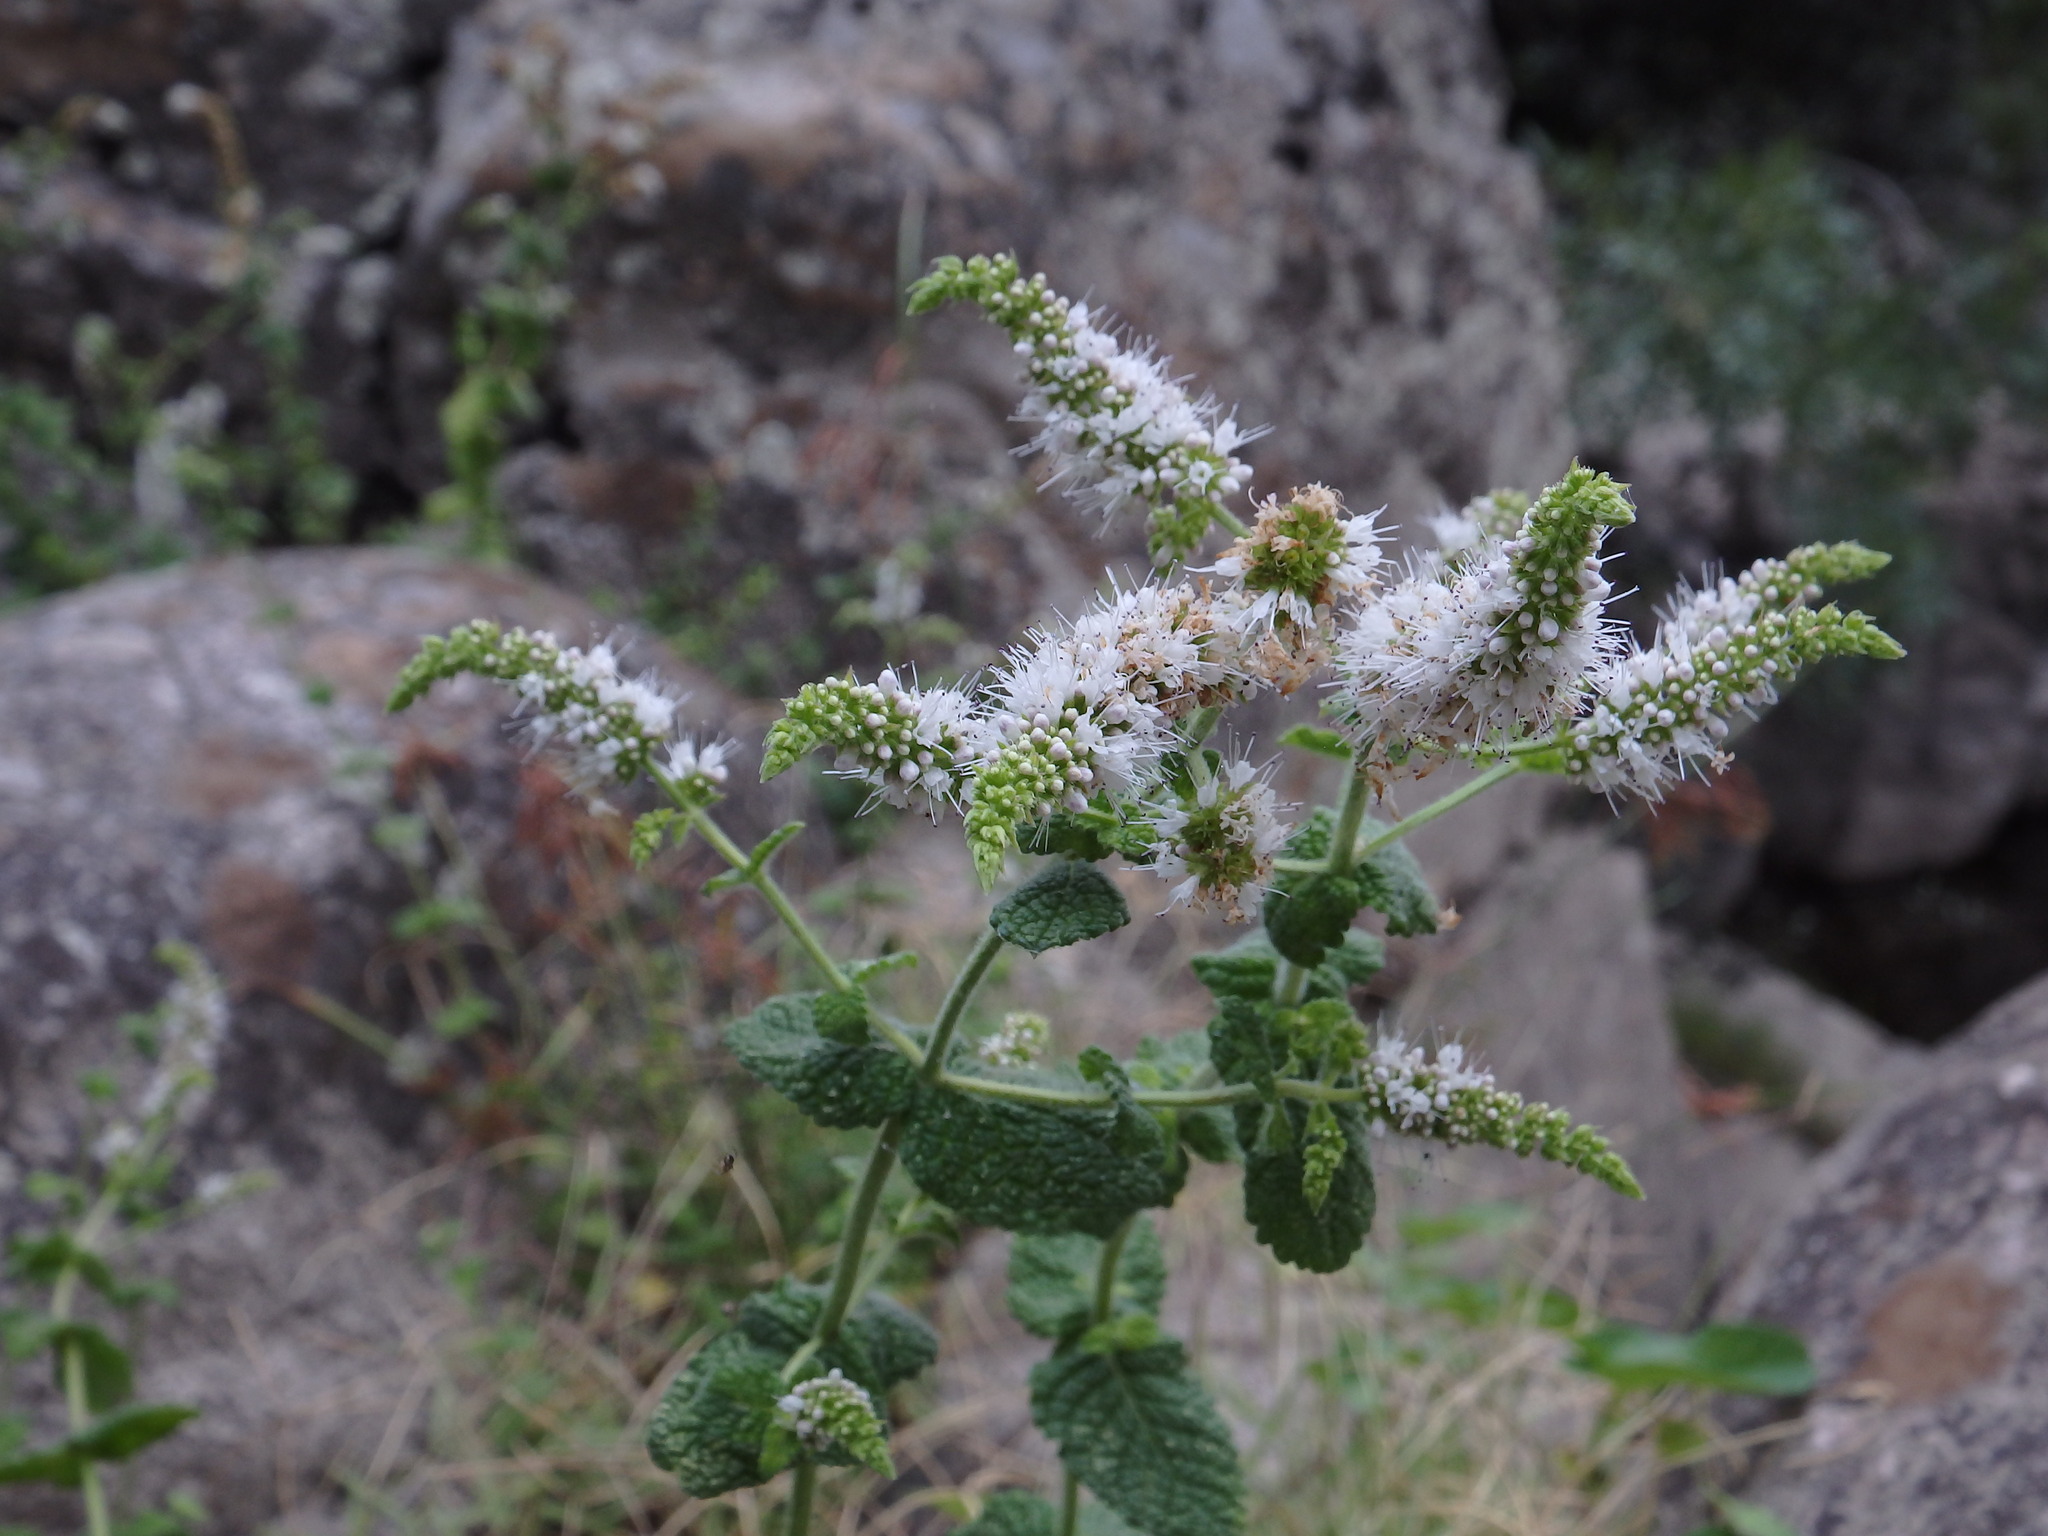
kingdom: Plantae
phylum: Tracheophyta
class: Magnoliopsida
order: Lamiales
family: Lamiaceae
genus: Mentha
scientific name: Mentha suaveolens
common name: Apple mint
